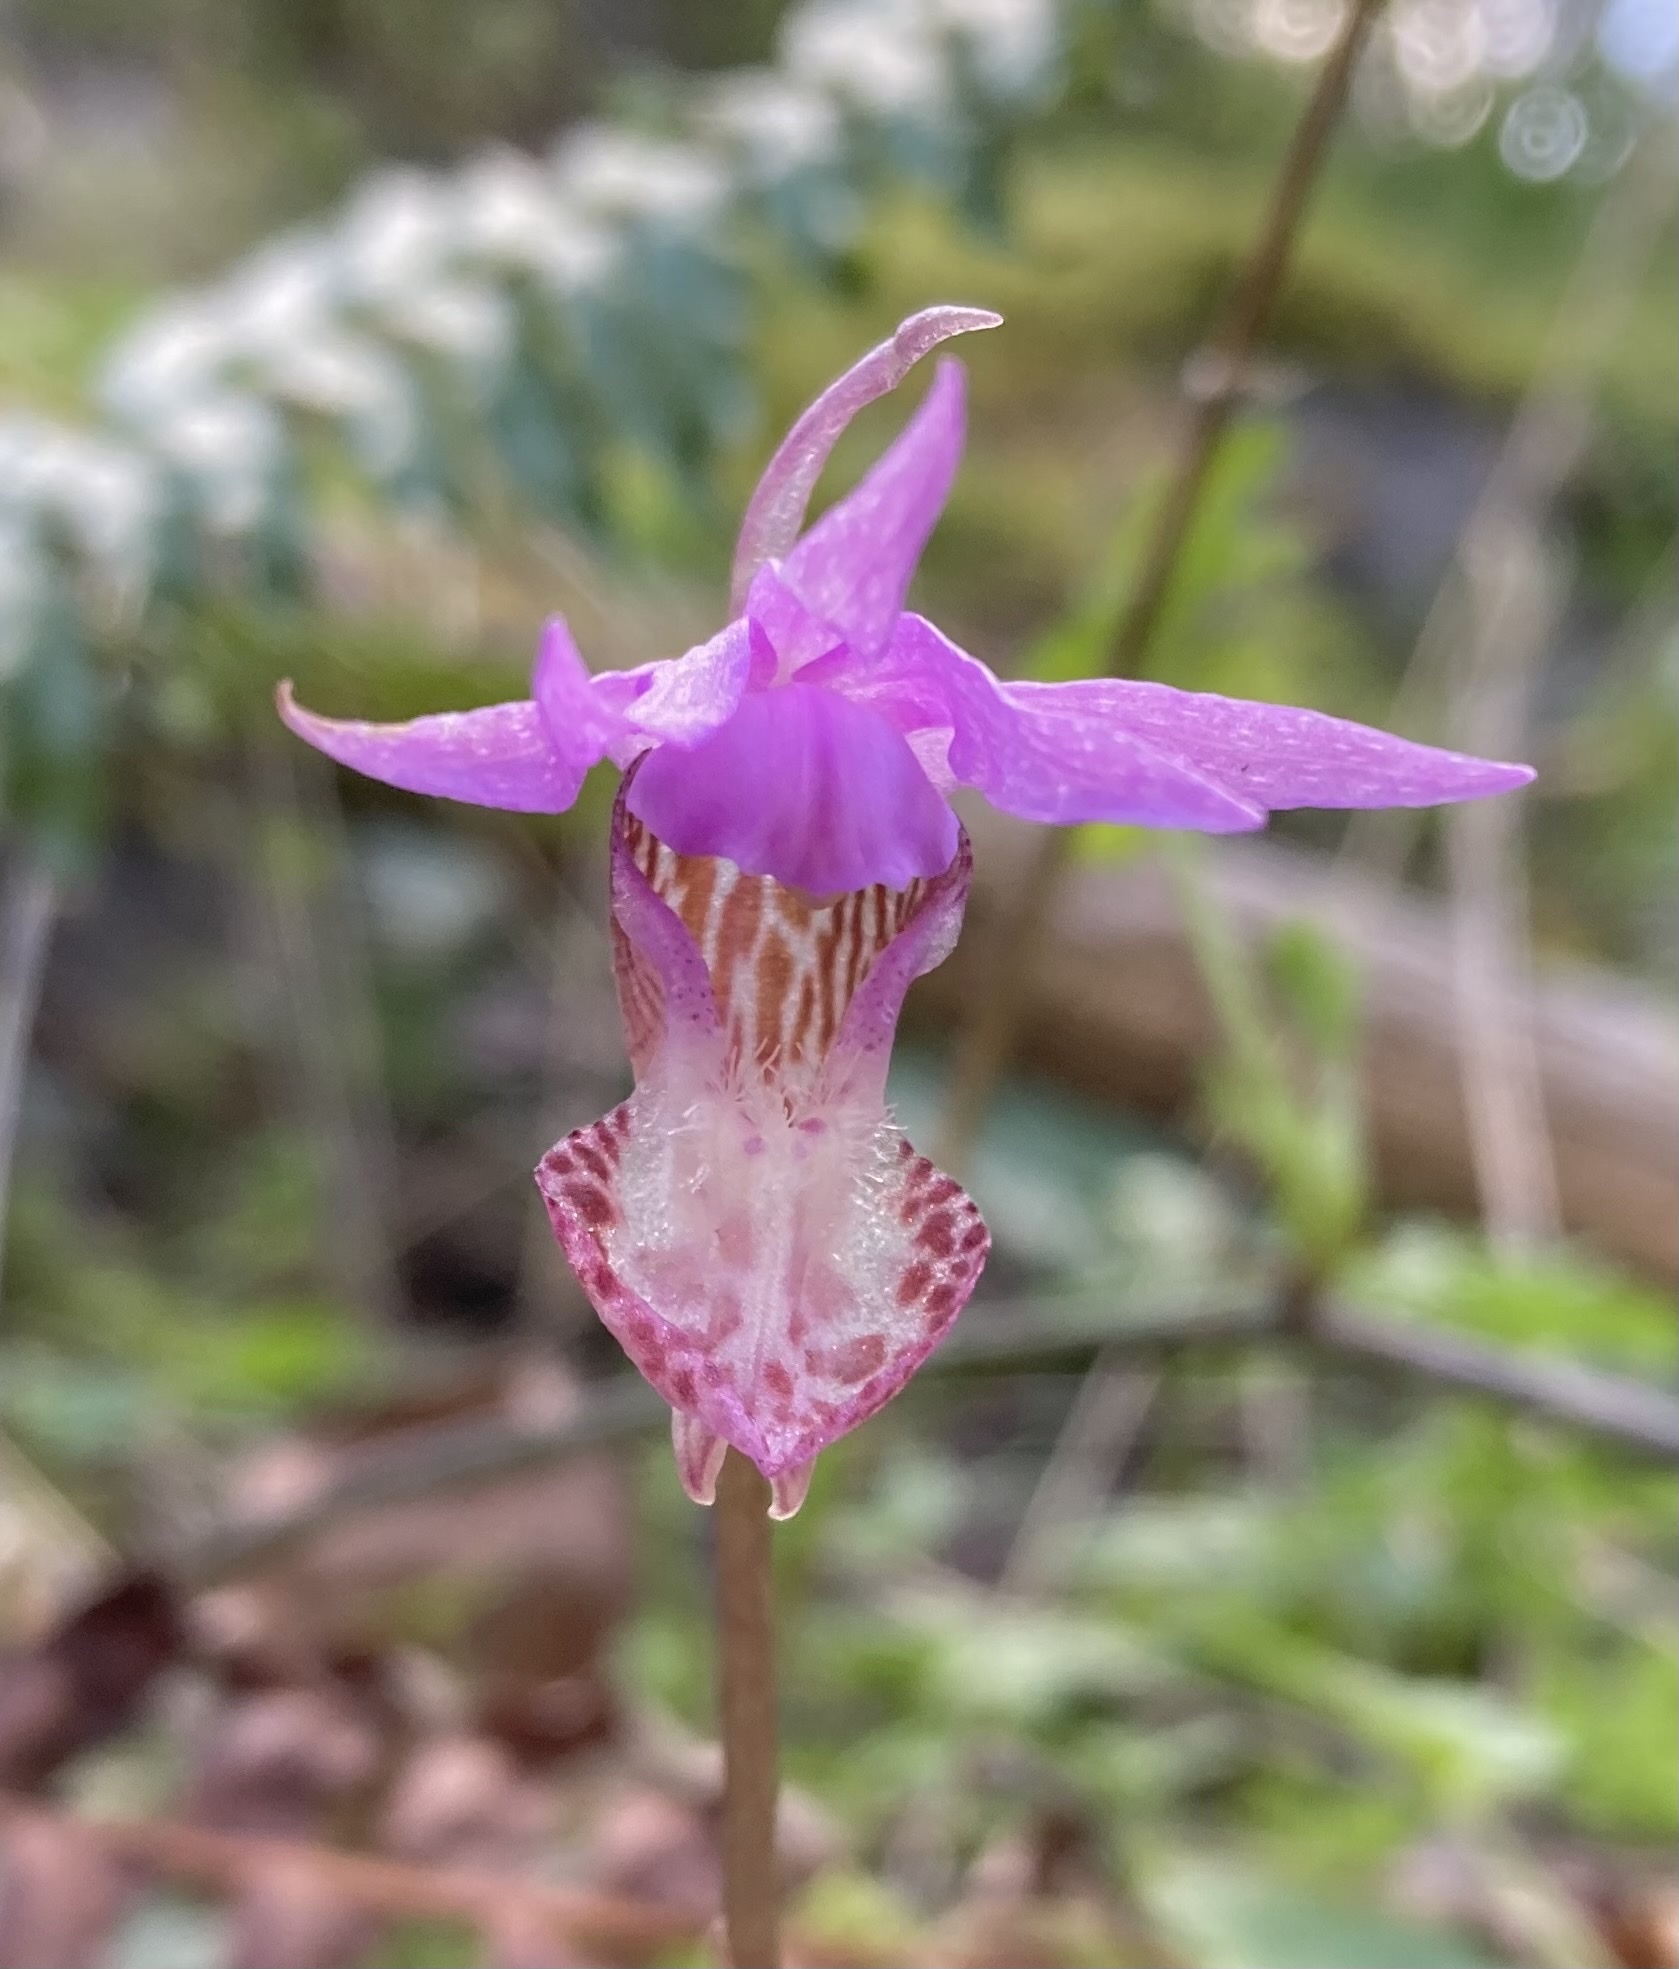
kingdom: Plantae
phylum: Tracheophyta
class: Liliopsida
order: Asparagales
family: Orchidaceae
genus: Calypso
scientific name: Calypso bulbosa
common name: Calypso
